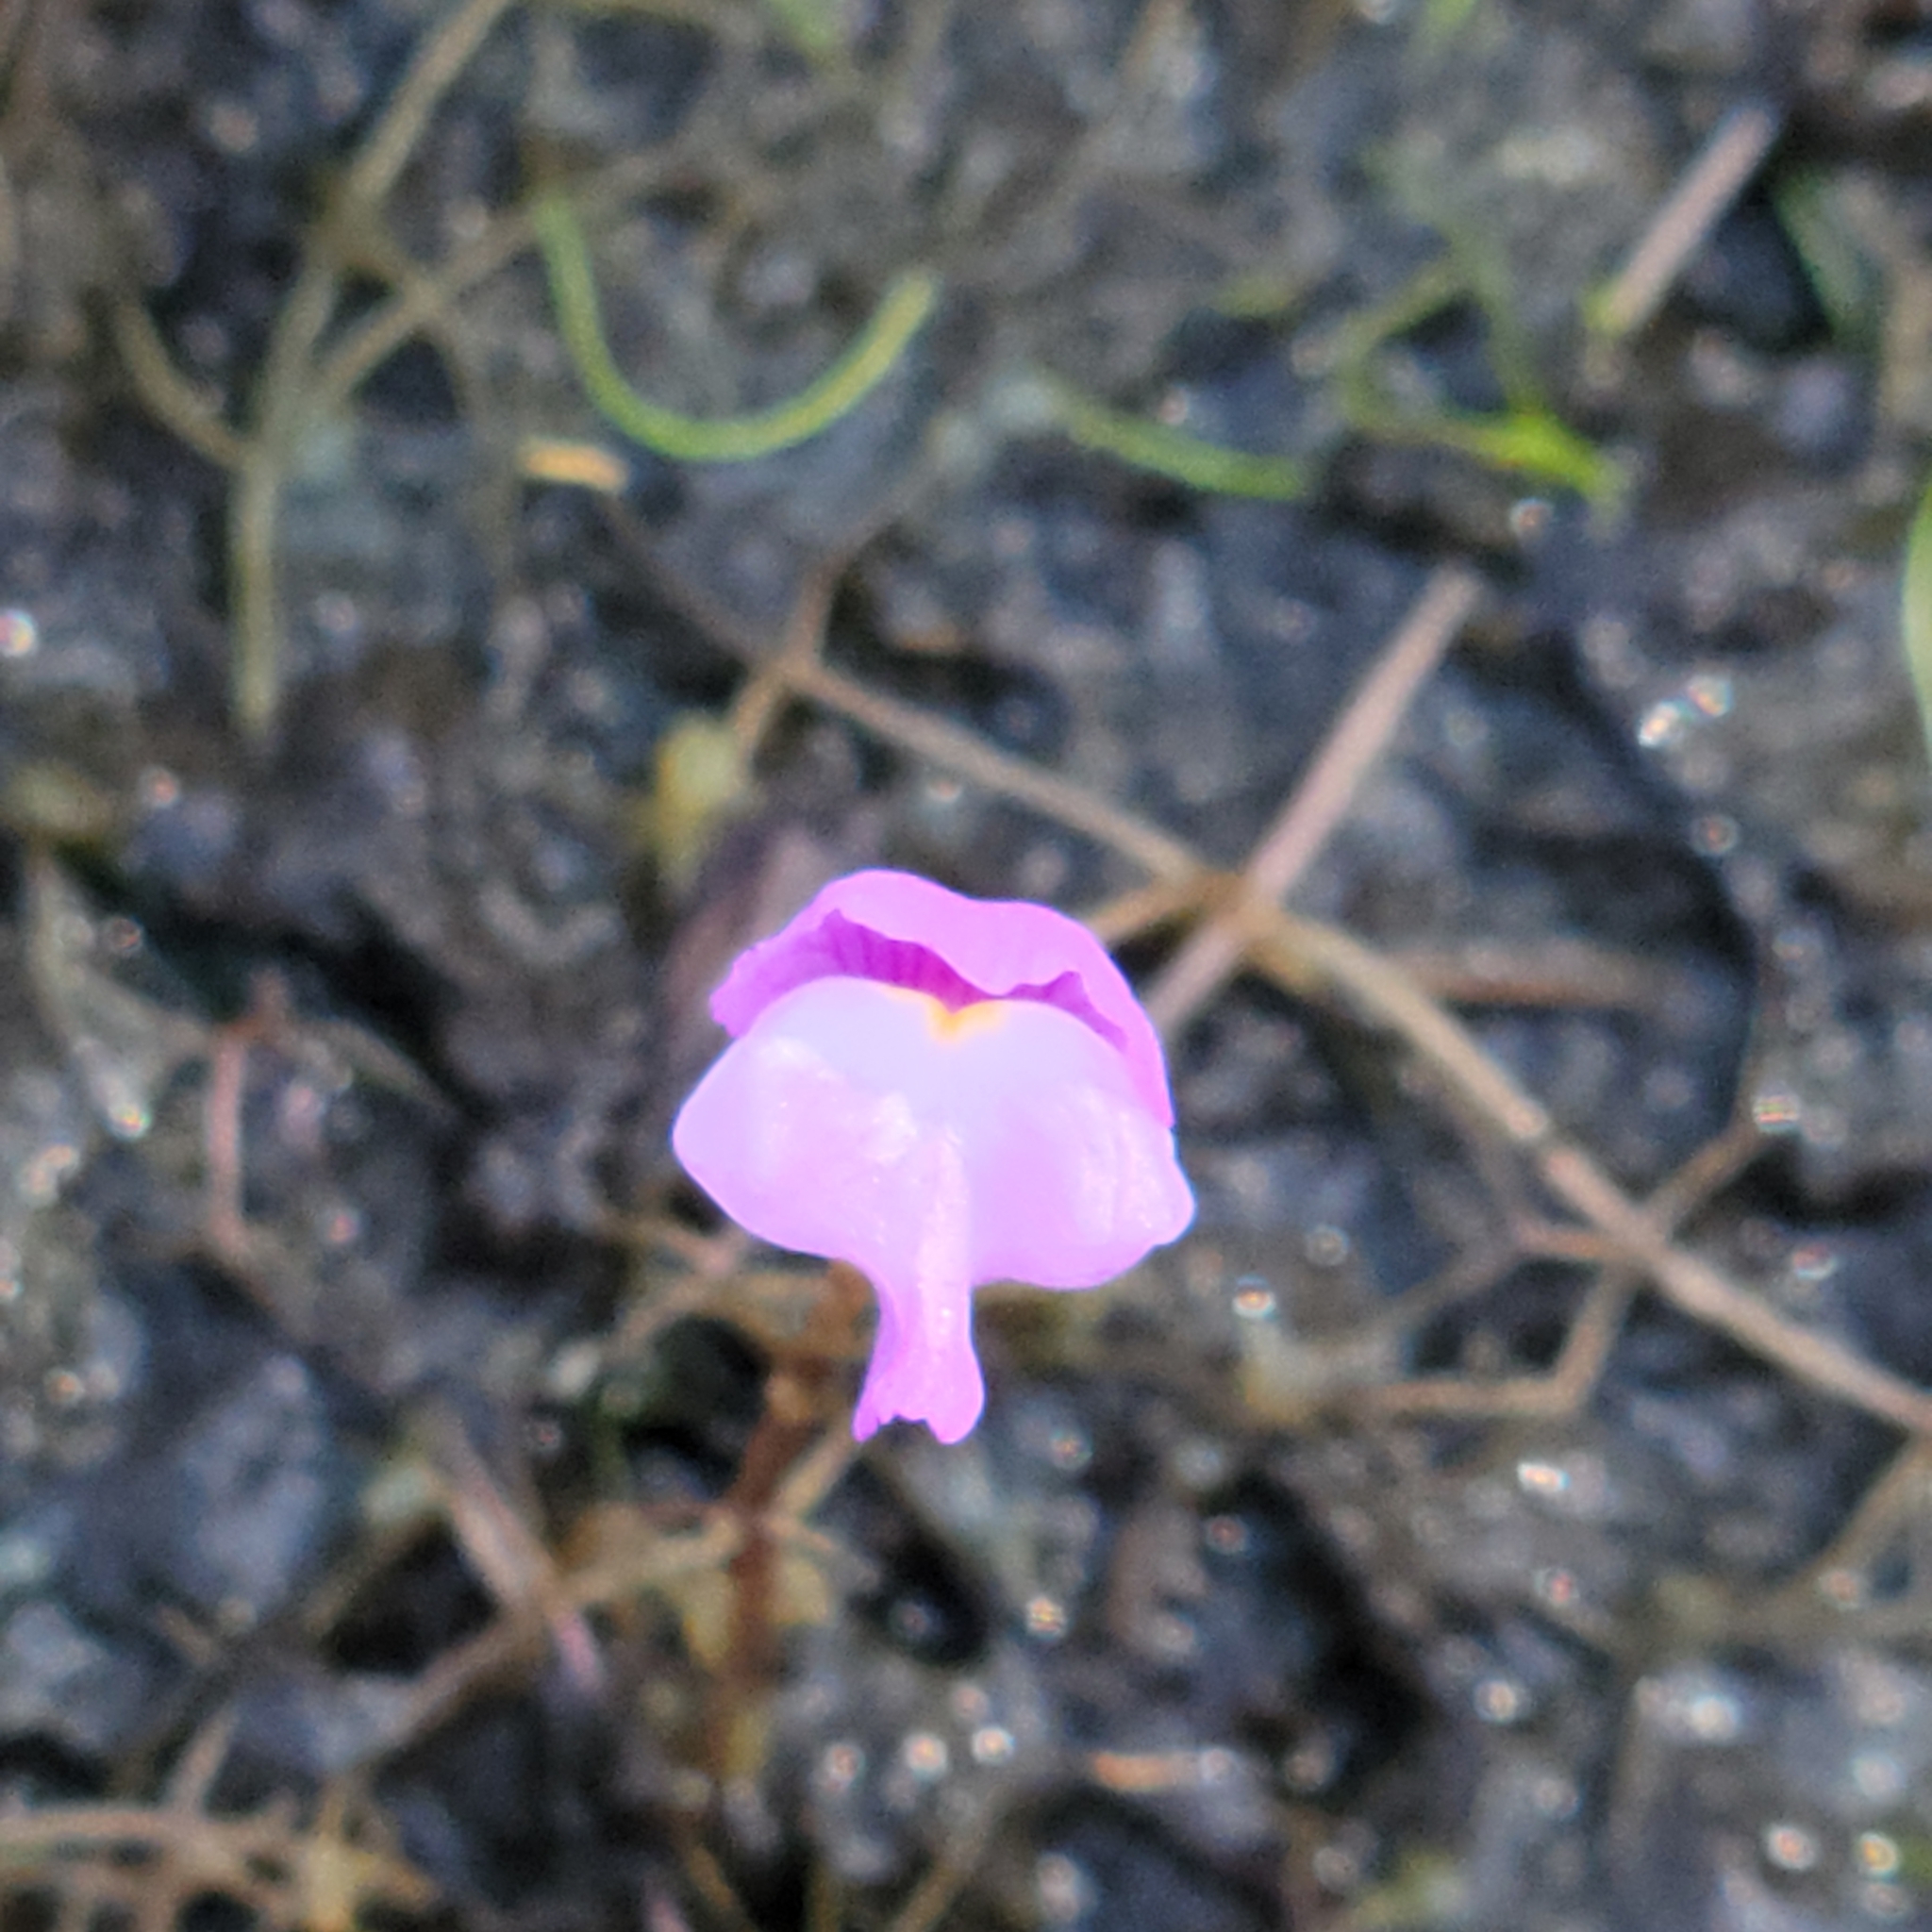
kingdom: Plantae
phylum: Tracheophyta
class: Magnoliopsida
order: Lamiales
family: Lentibulariaceae
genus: Utricularia
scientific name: Utricularia purpurea
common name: Eastern purple bladderwort
